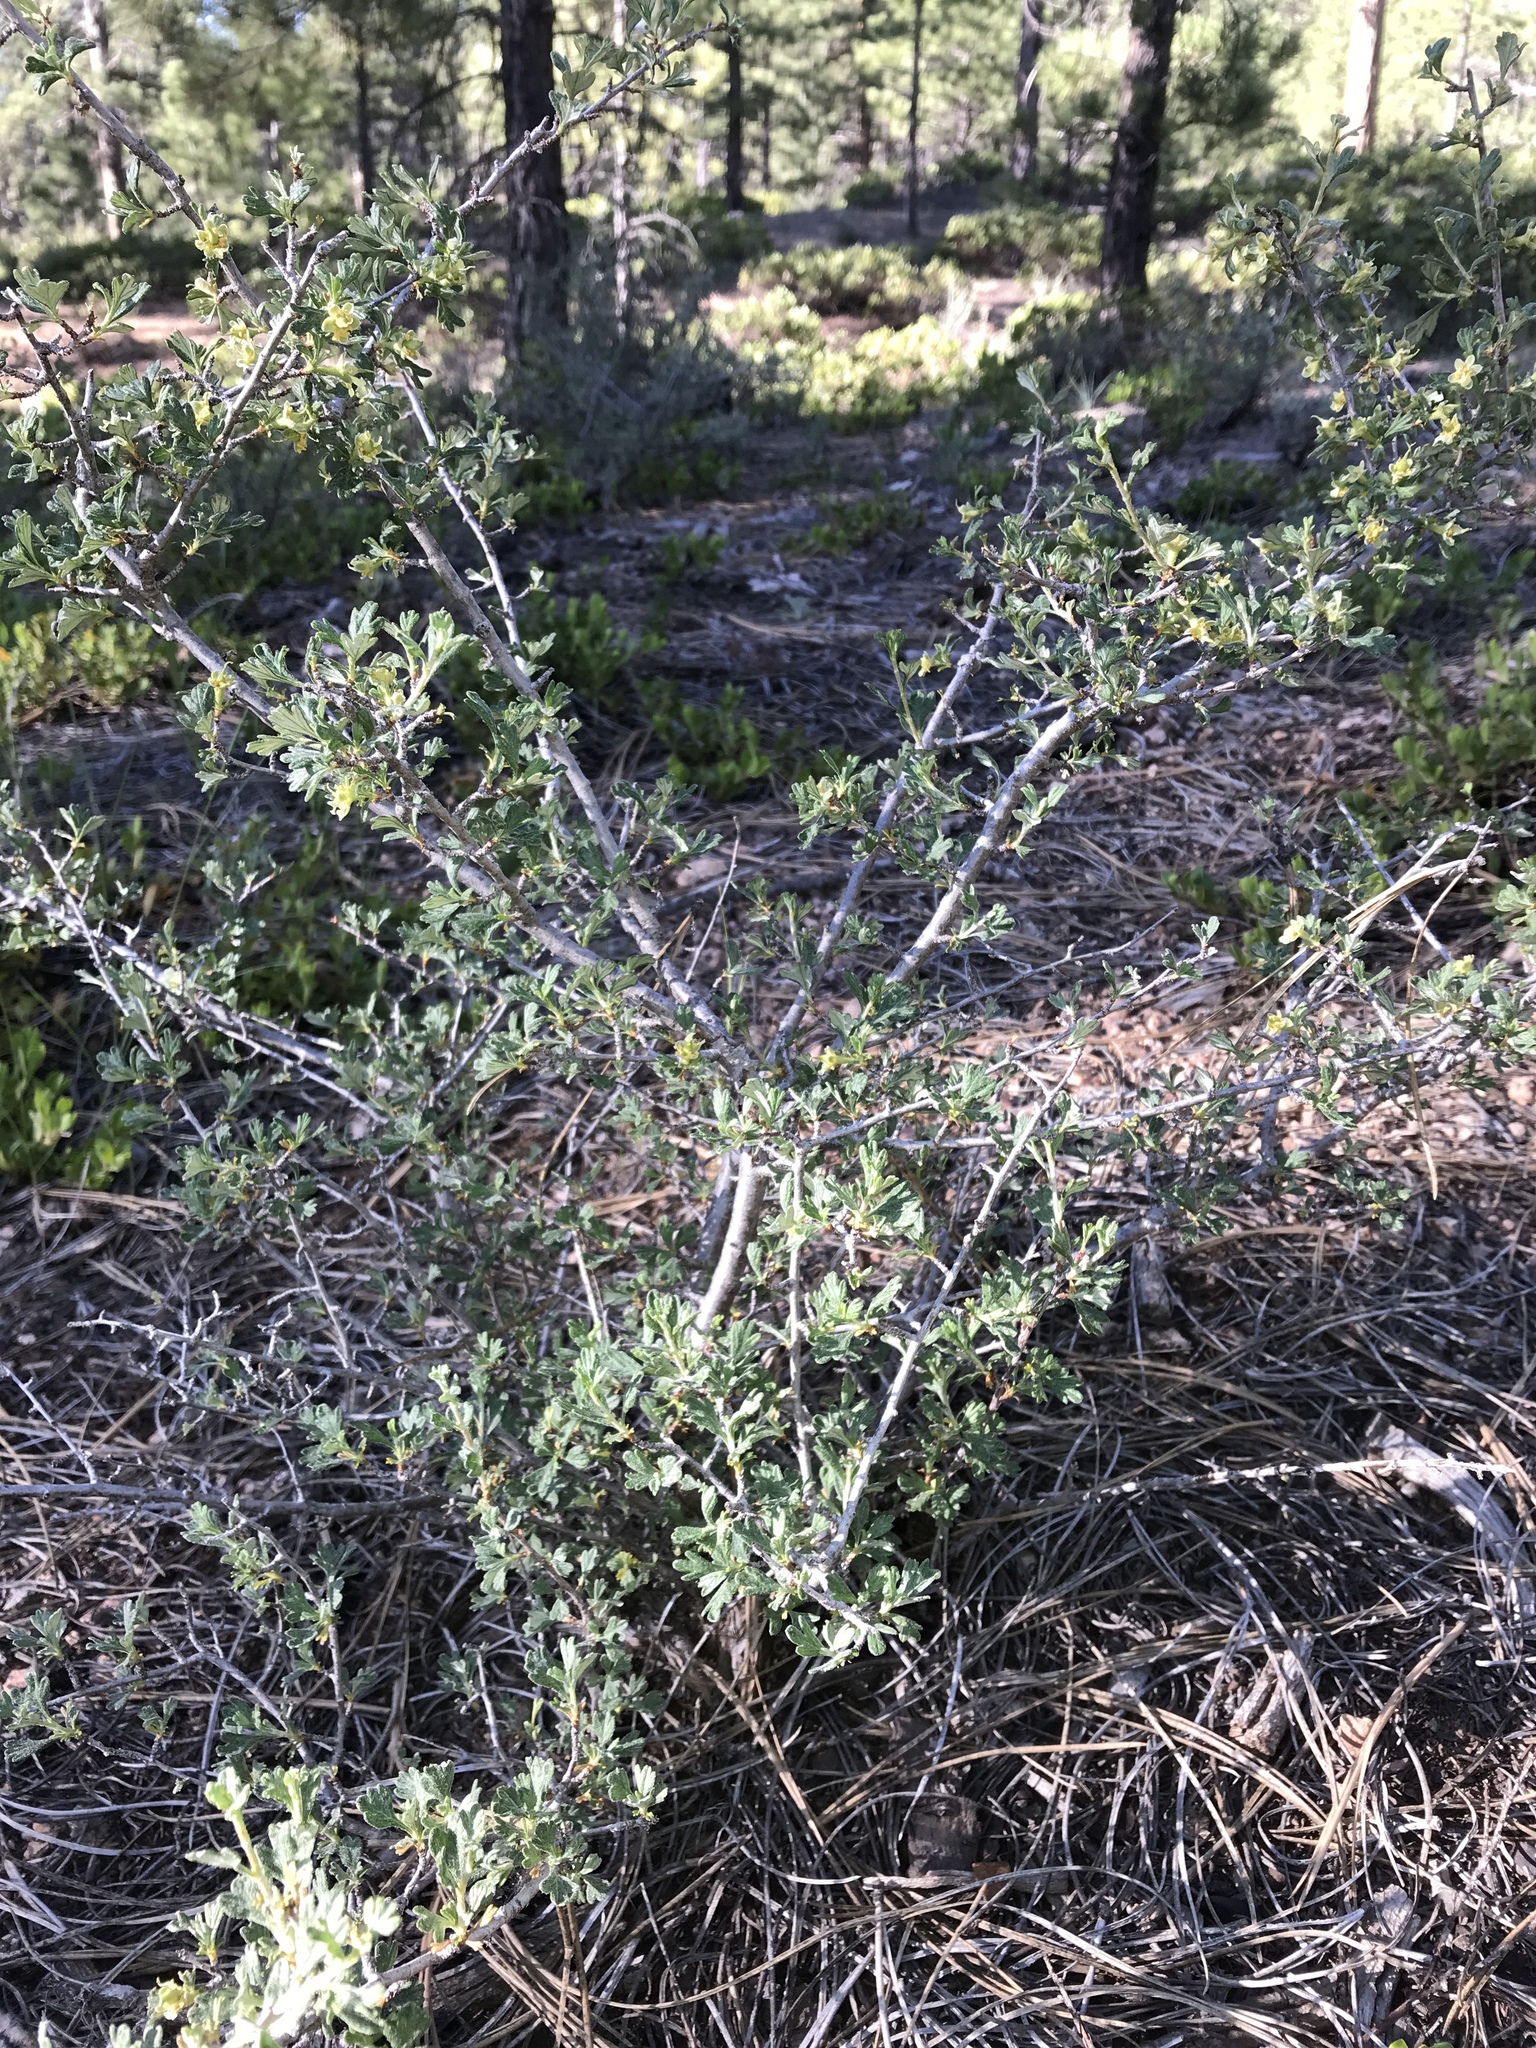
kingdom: Plantae
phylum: Tracheophyta
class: Magnoliopsida
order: Rosales
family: Rosaceae
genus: Purshia
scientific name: Purshia tridentata
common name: Antelope bitterbrush
